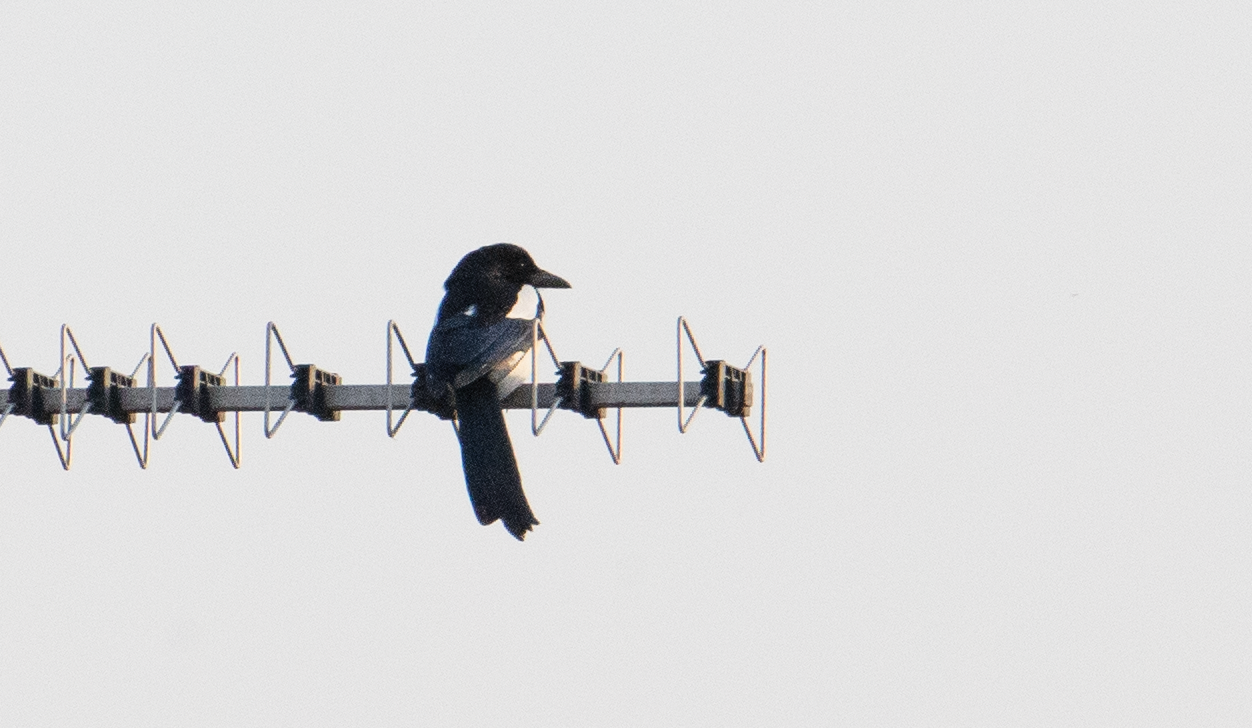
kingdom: Animalia
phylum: Chordata
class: Aves
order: Passeriformes
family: Corvidae
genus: Pica
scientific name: Pica pica
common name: Eurasian magpie
